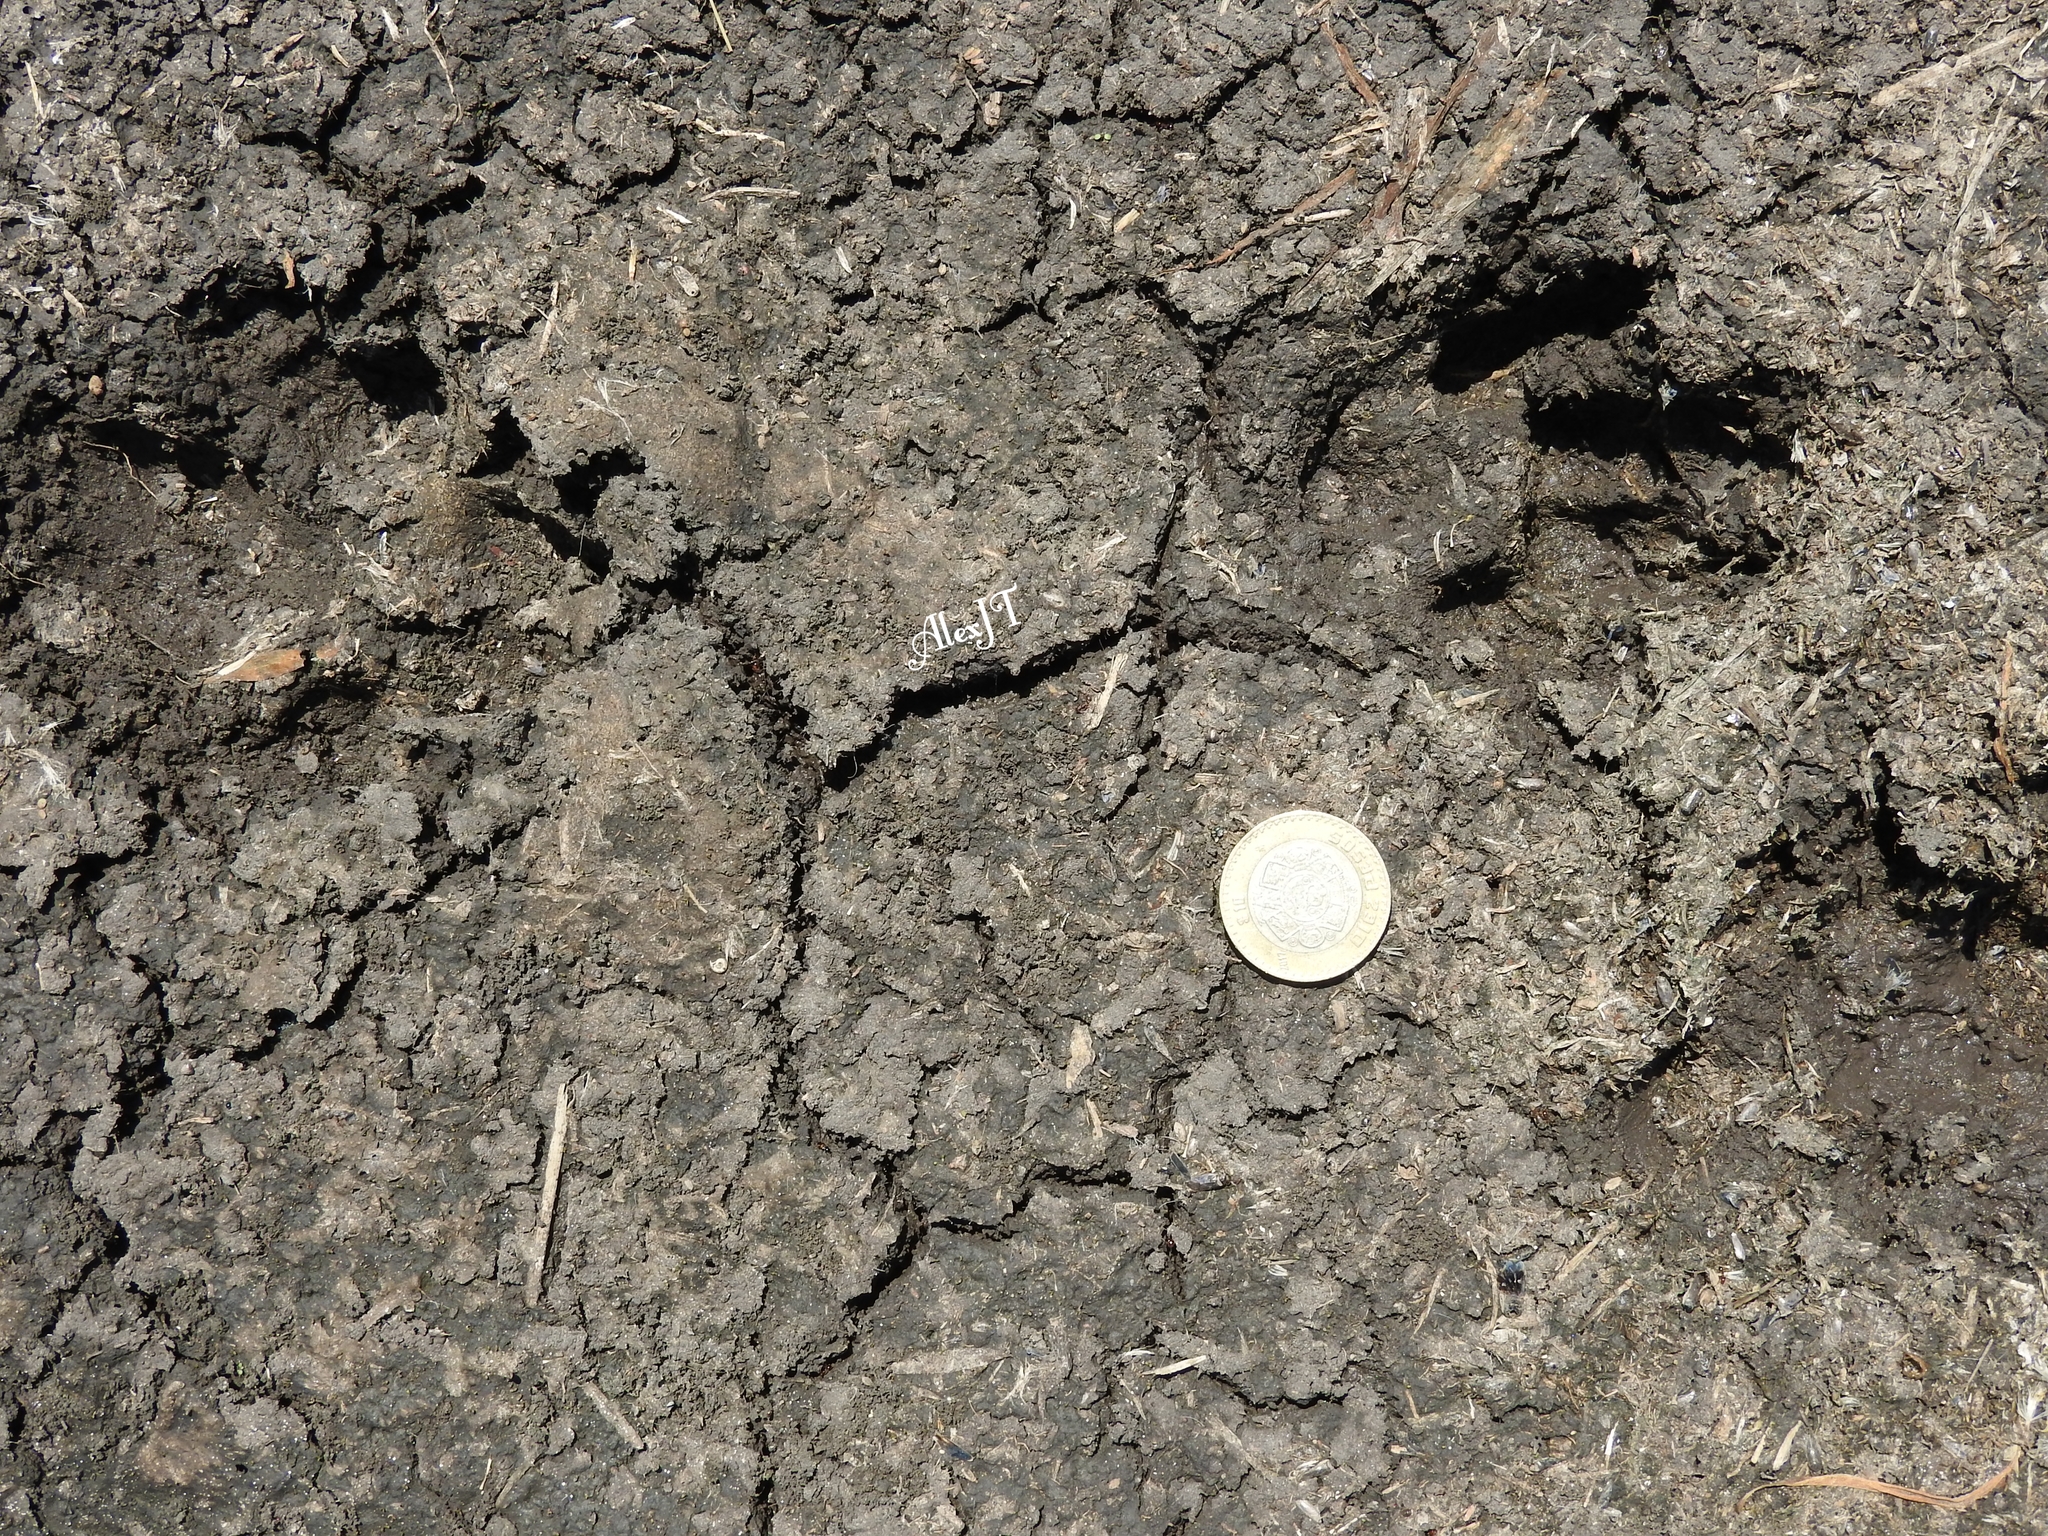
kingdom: Animalia
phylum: Chordata
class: Mammalia
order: Carnivora
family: Procyonidae
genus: Procyon
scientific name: Procyon lotor
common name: Raccoon
